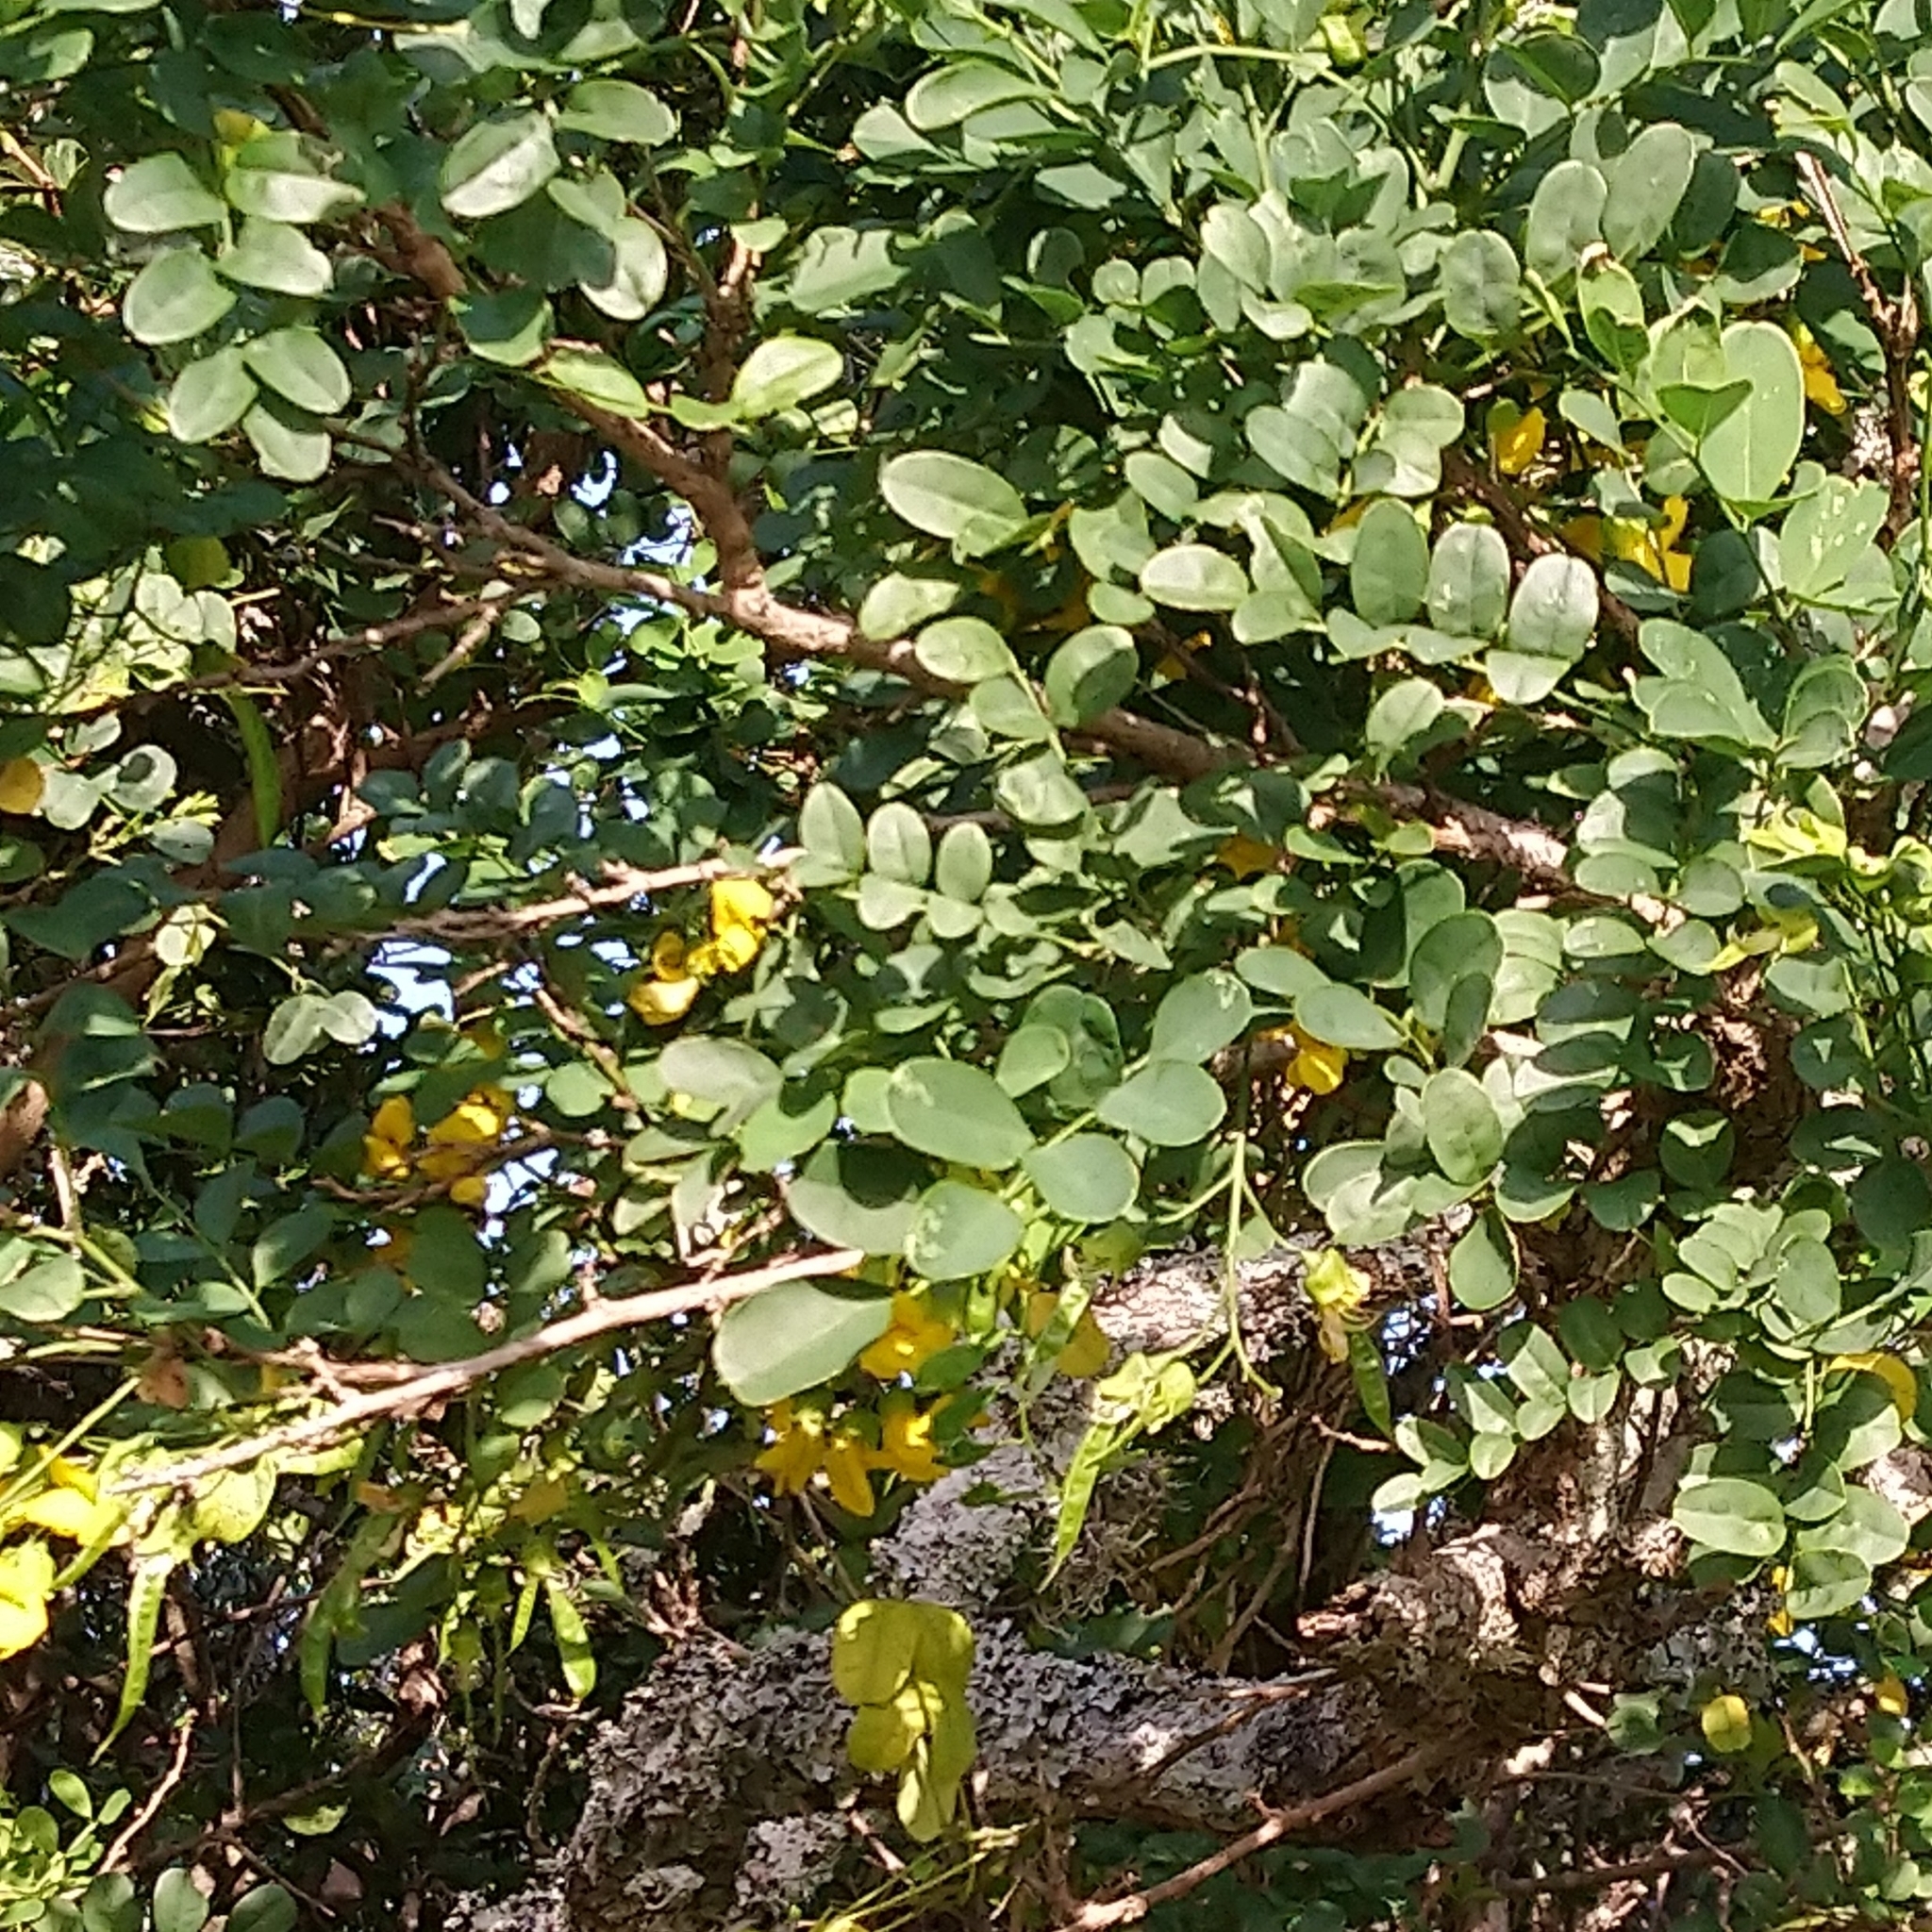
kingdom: Plantae
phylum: Tracheophyta
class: Magnoliopsida
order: Fabales
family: Fabaceae
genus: Calpurnia
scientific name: Calpurnia aurea
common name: Wild laburnum
